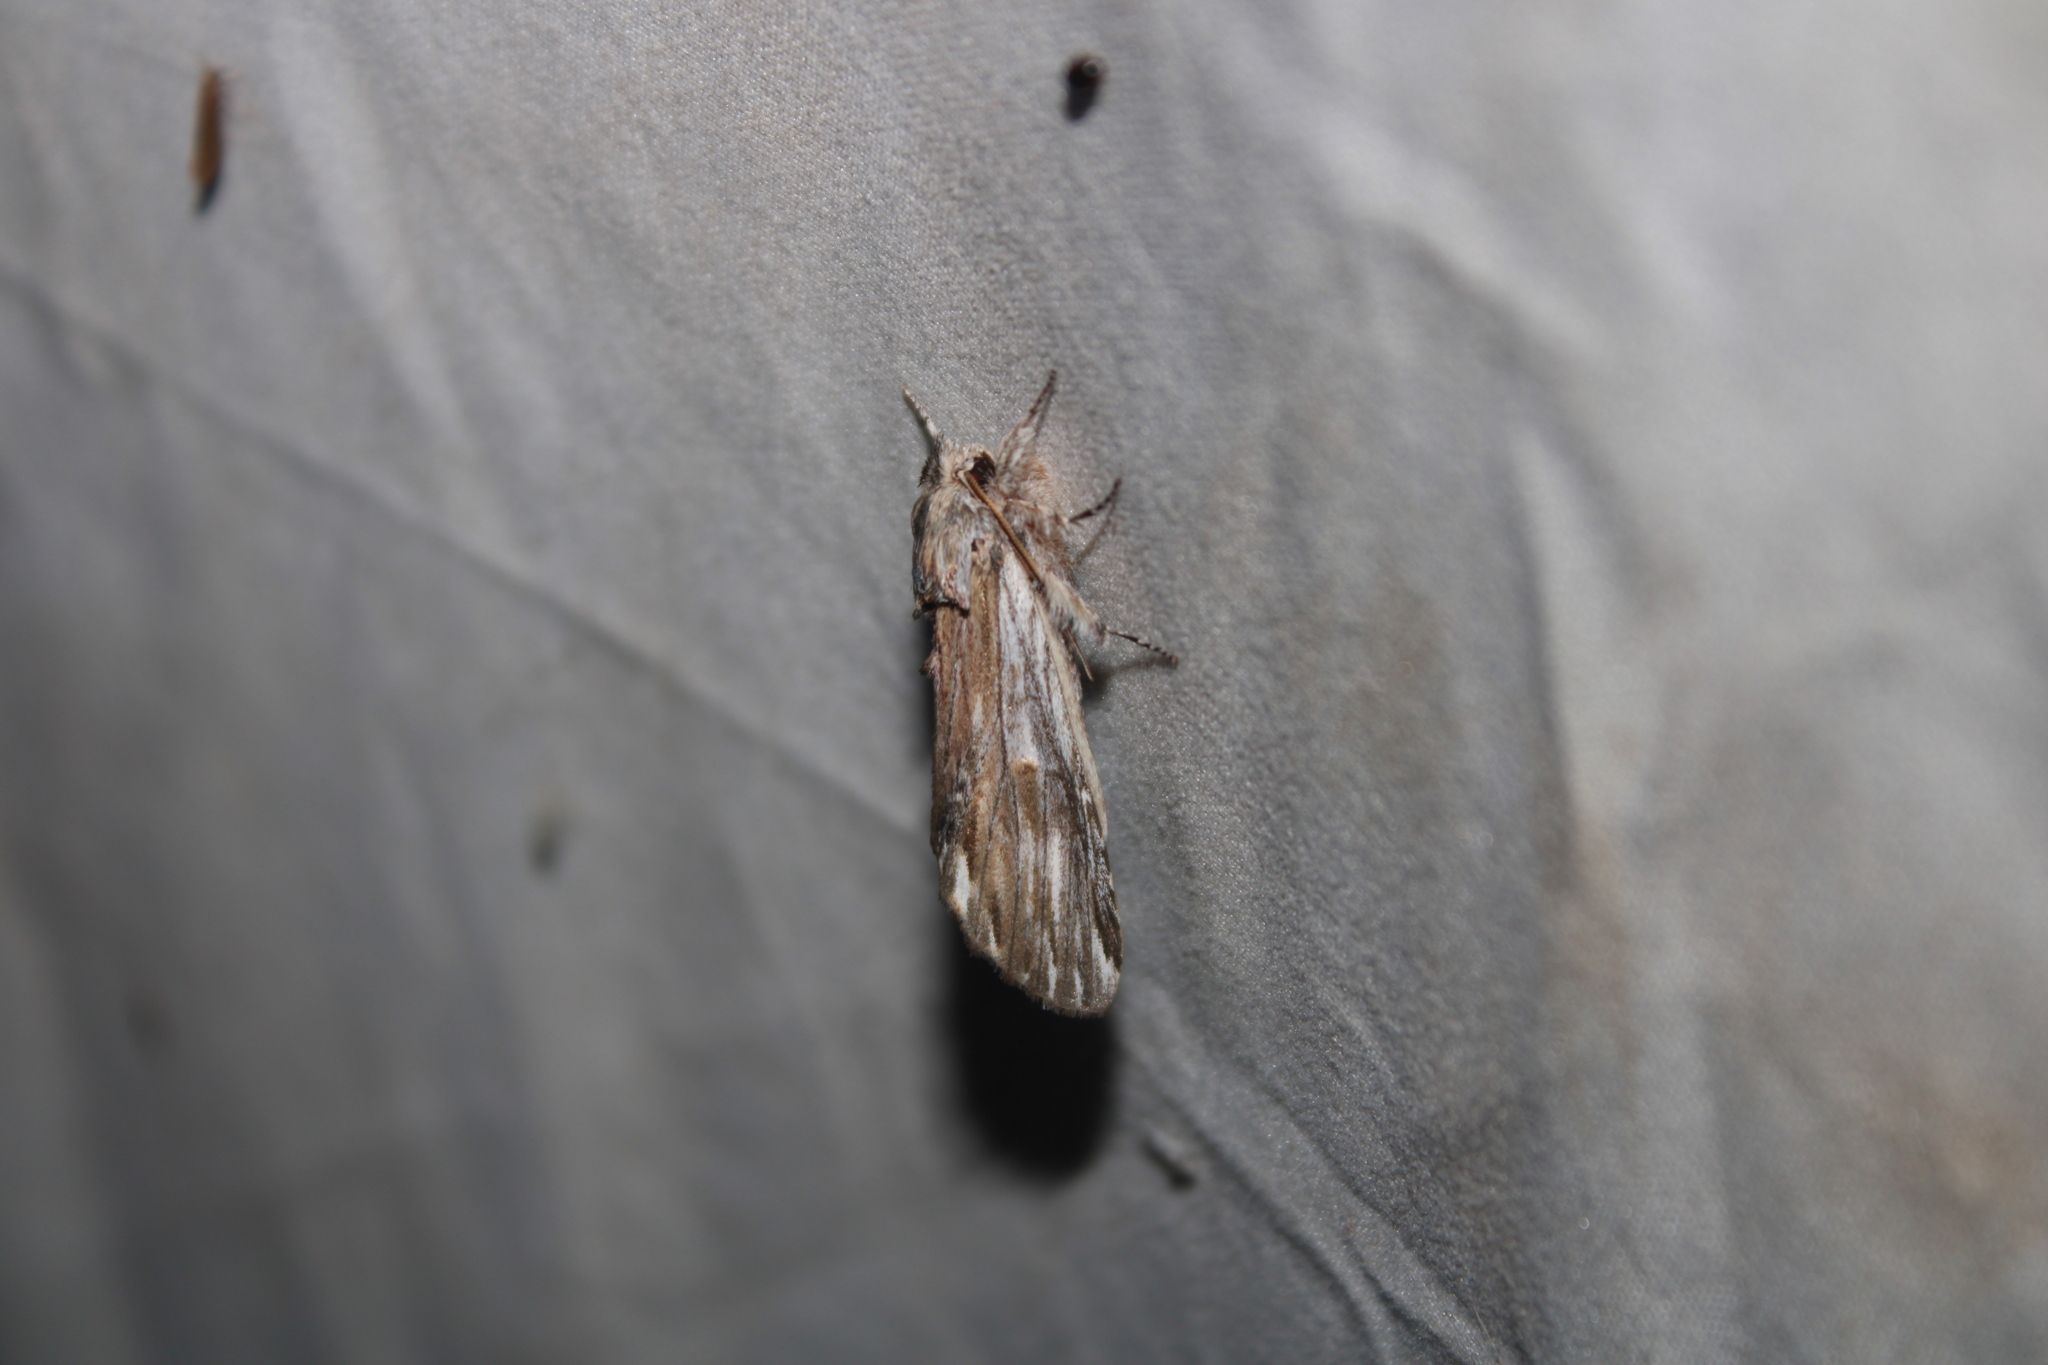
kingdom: Animalia
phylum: Arthropoda
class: Insecta
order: Lepidoptera
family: Notodontidae
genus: Oligocentria
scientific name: Oligocentria Ianassa lignicolor
